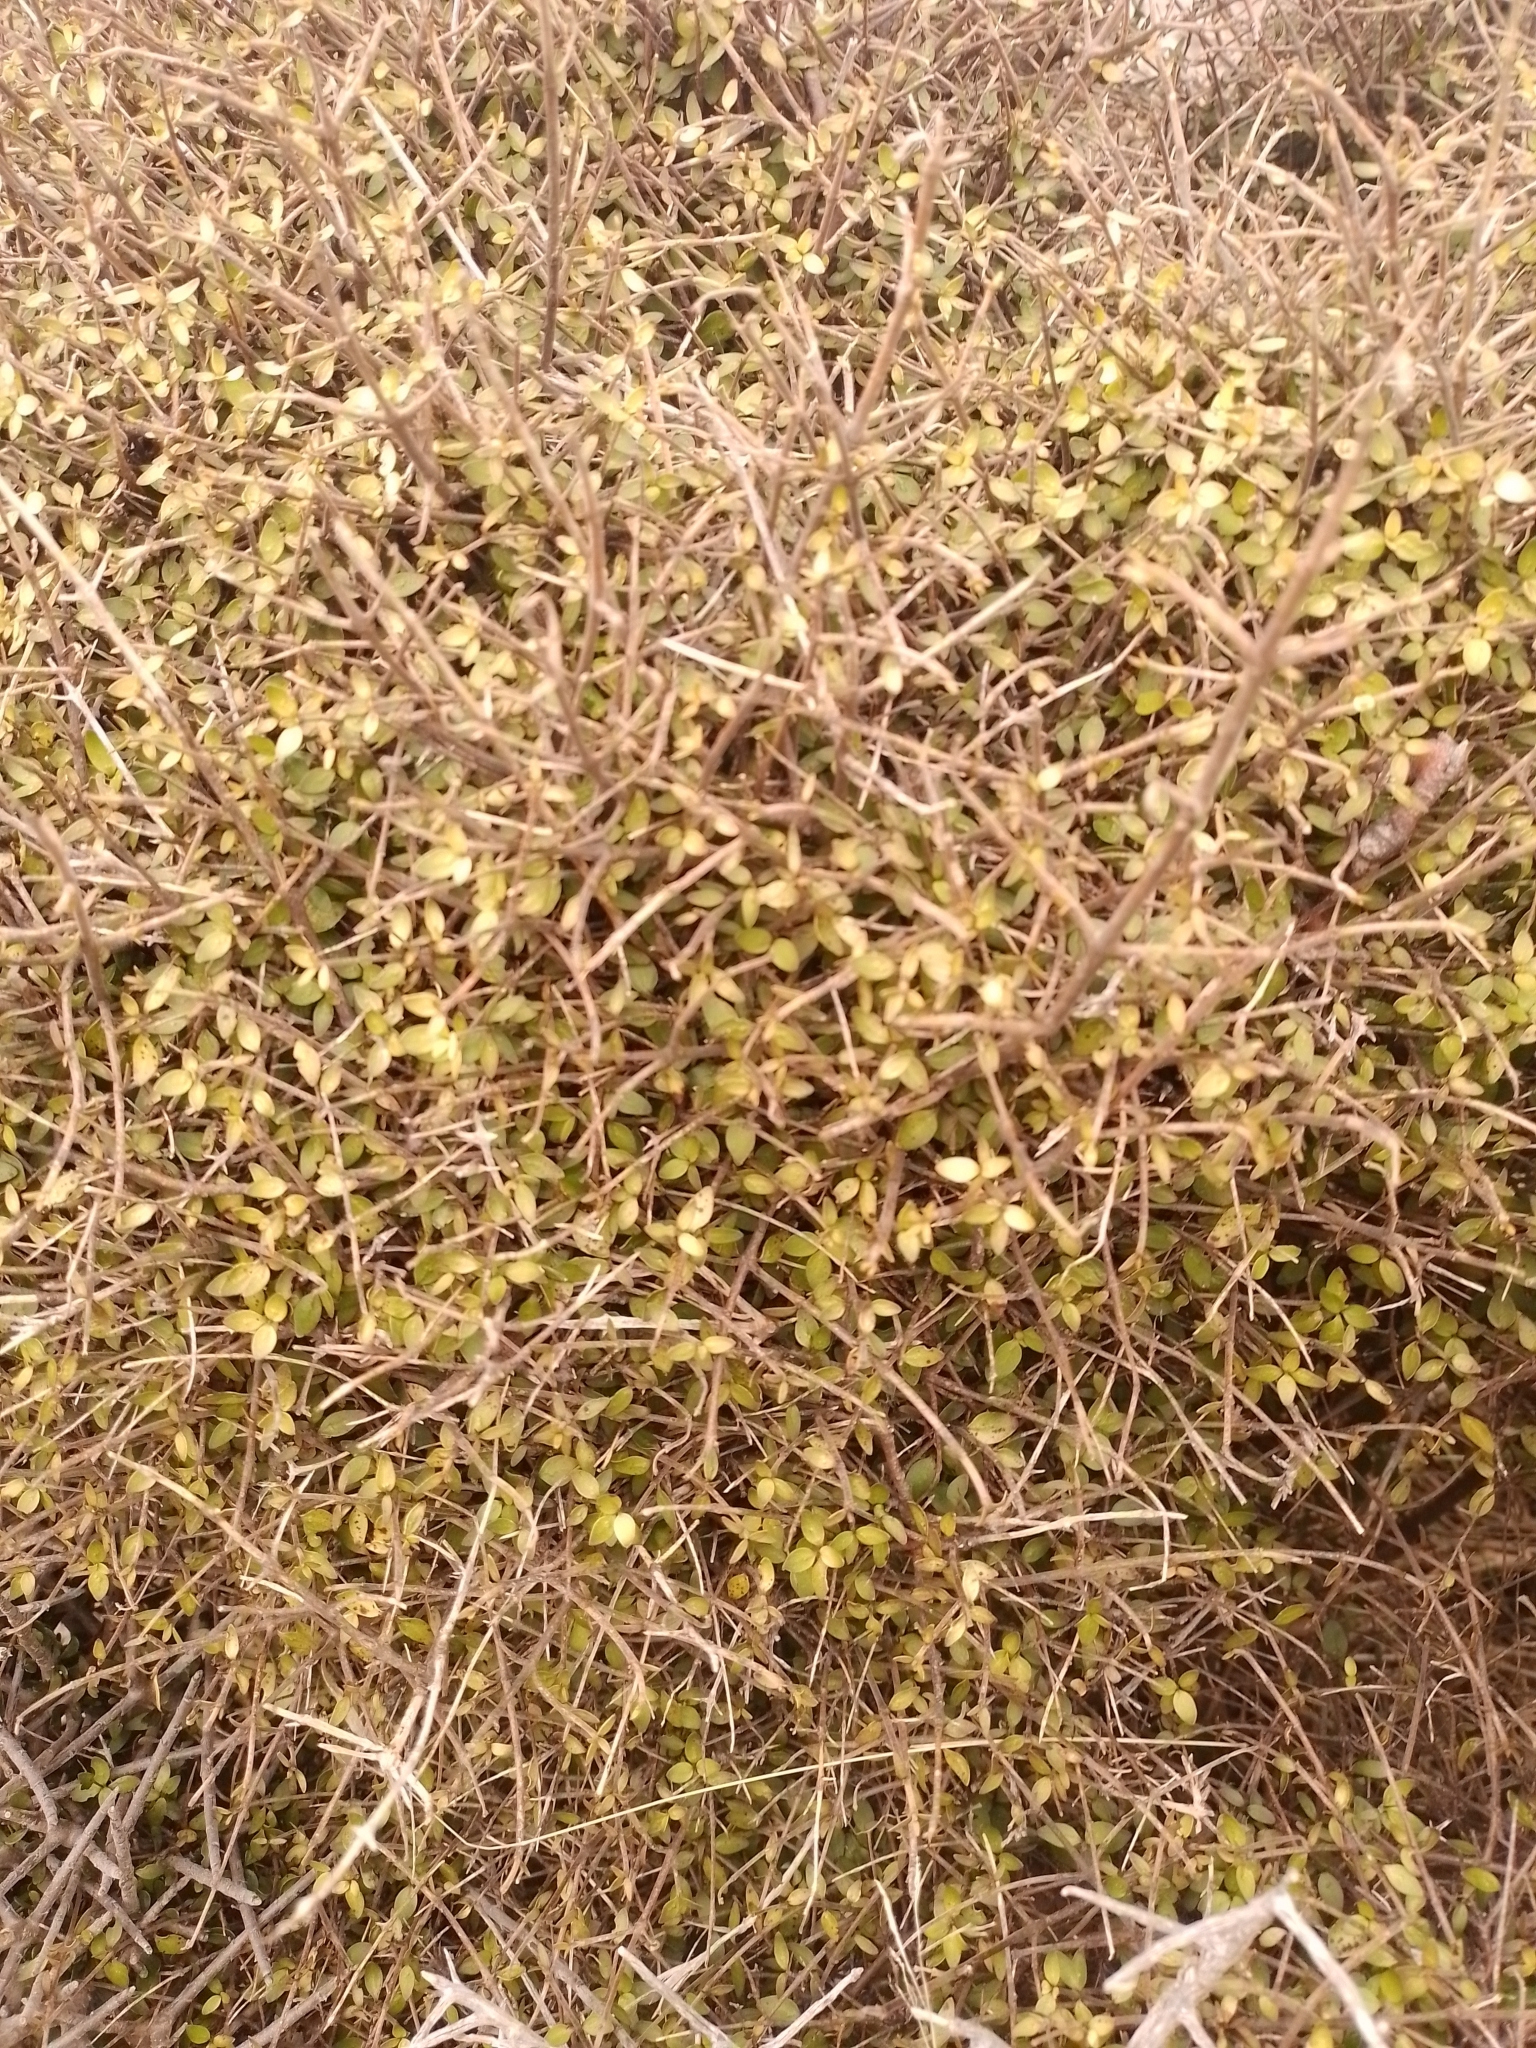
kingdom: Plantae
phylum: Tracheophyta
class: Magnoliopsida
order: Gentianales
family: Rubiaceae
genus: Coprosma
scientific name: Coprosma rhamnoides
